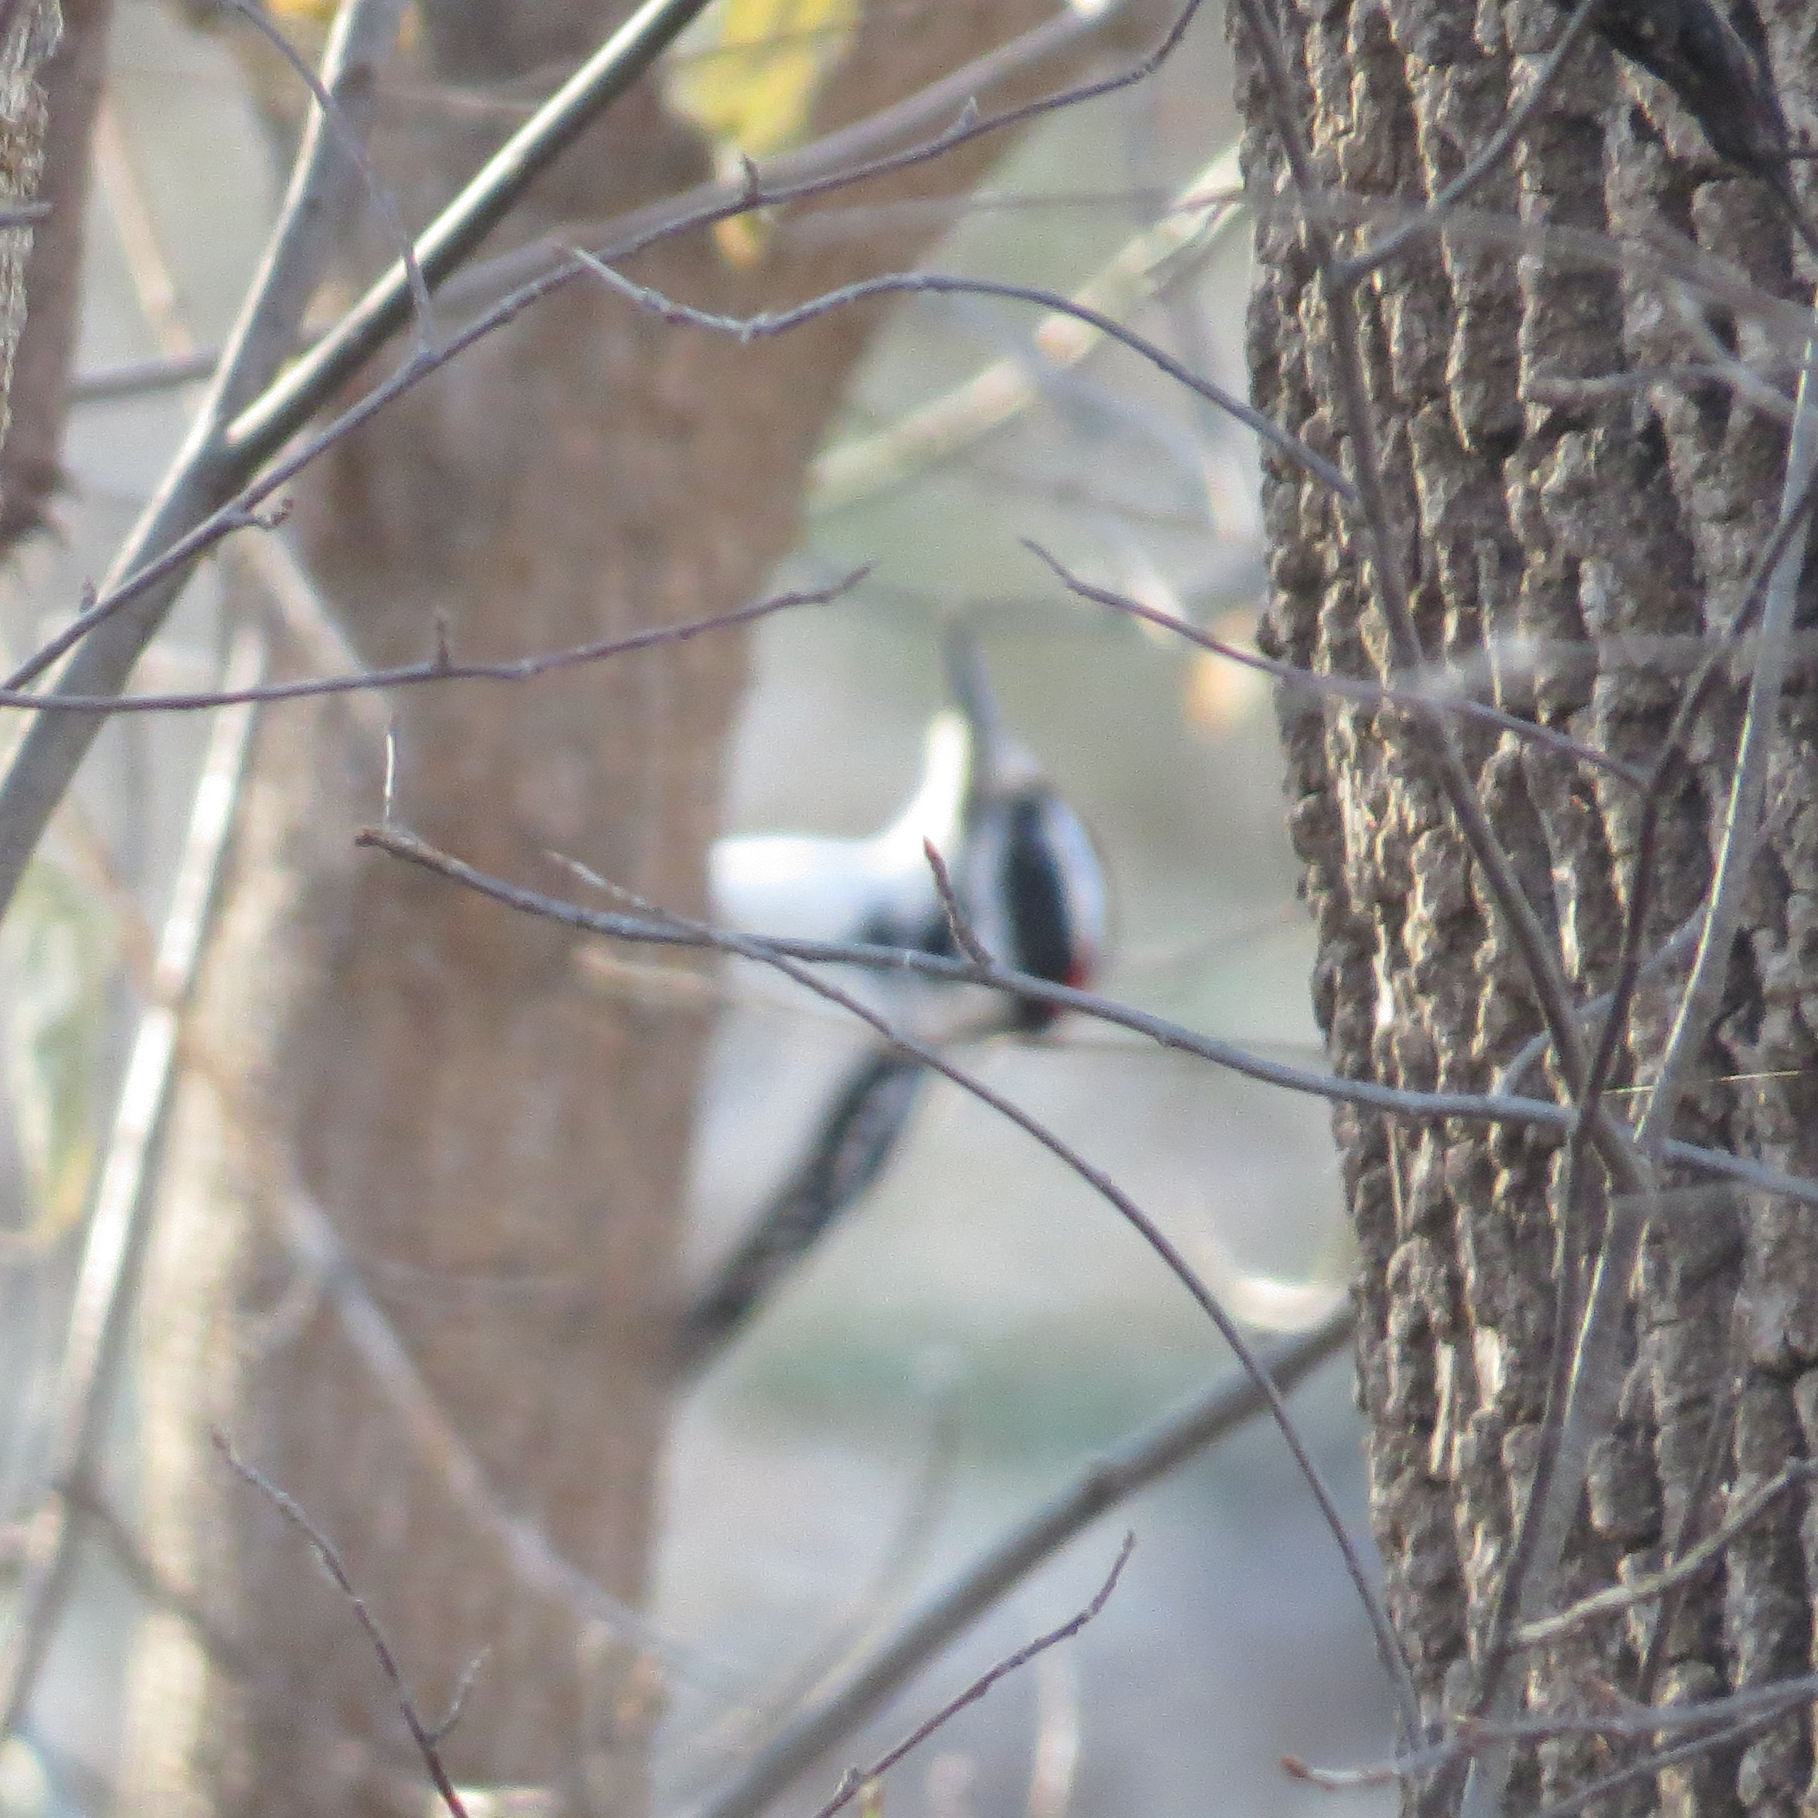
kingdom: Animalia
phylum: Chordata
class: Aves
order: Piciformes
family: Picidae
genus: Leuconotopicus
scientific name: Leuconotopicus villosus
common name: Hairy woodpecker
